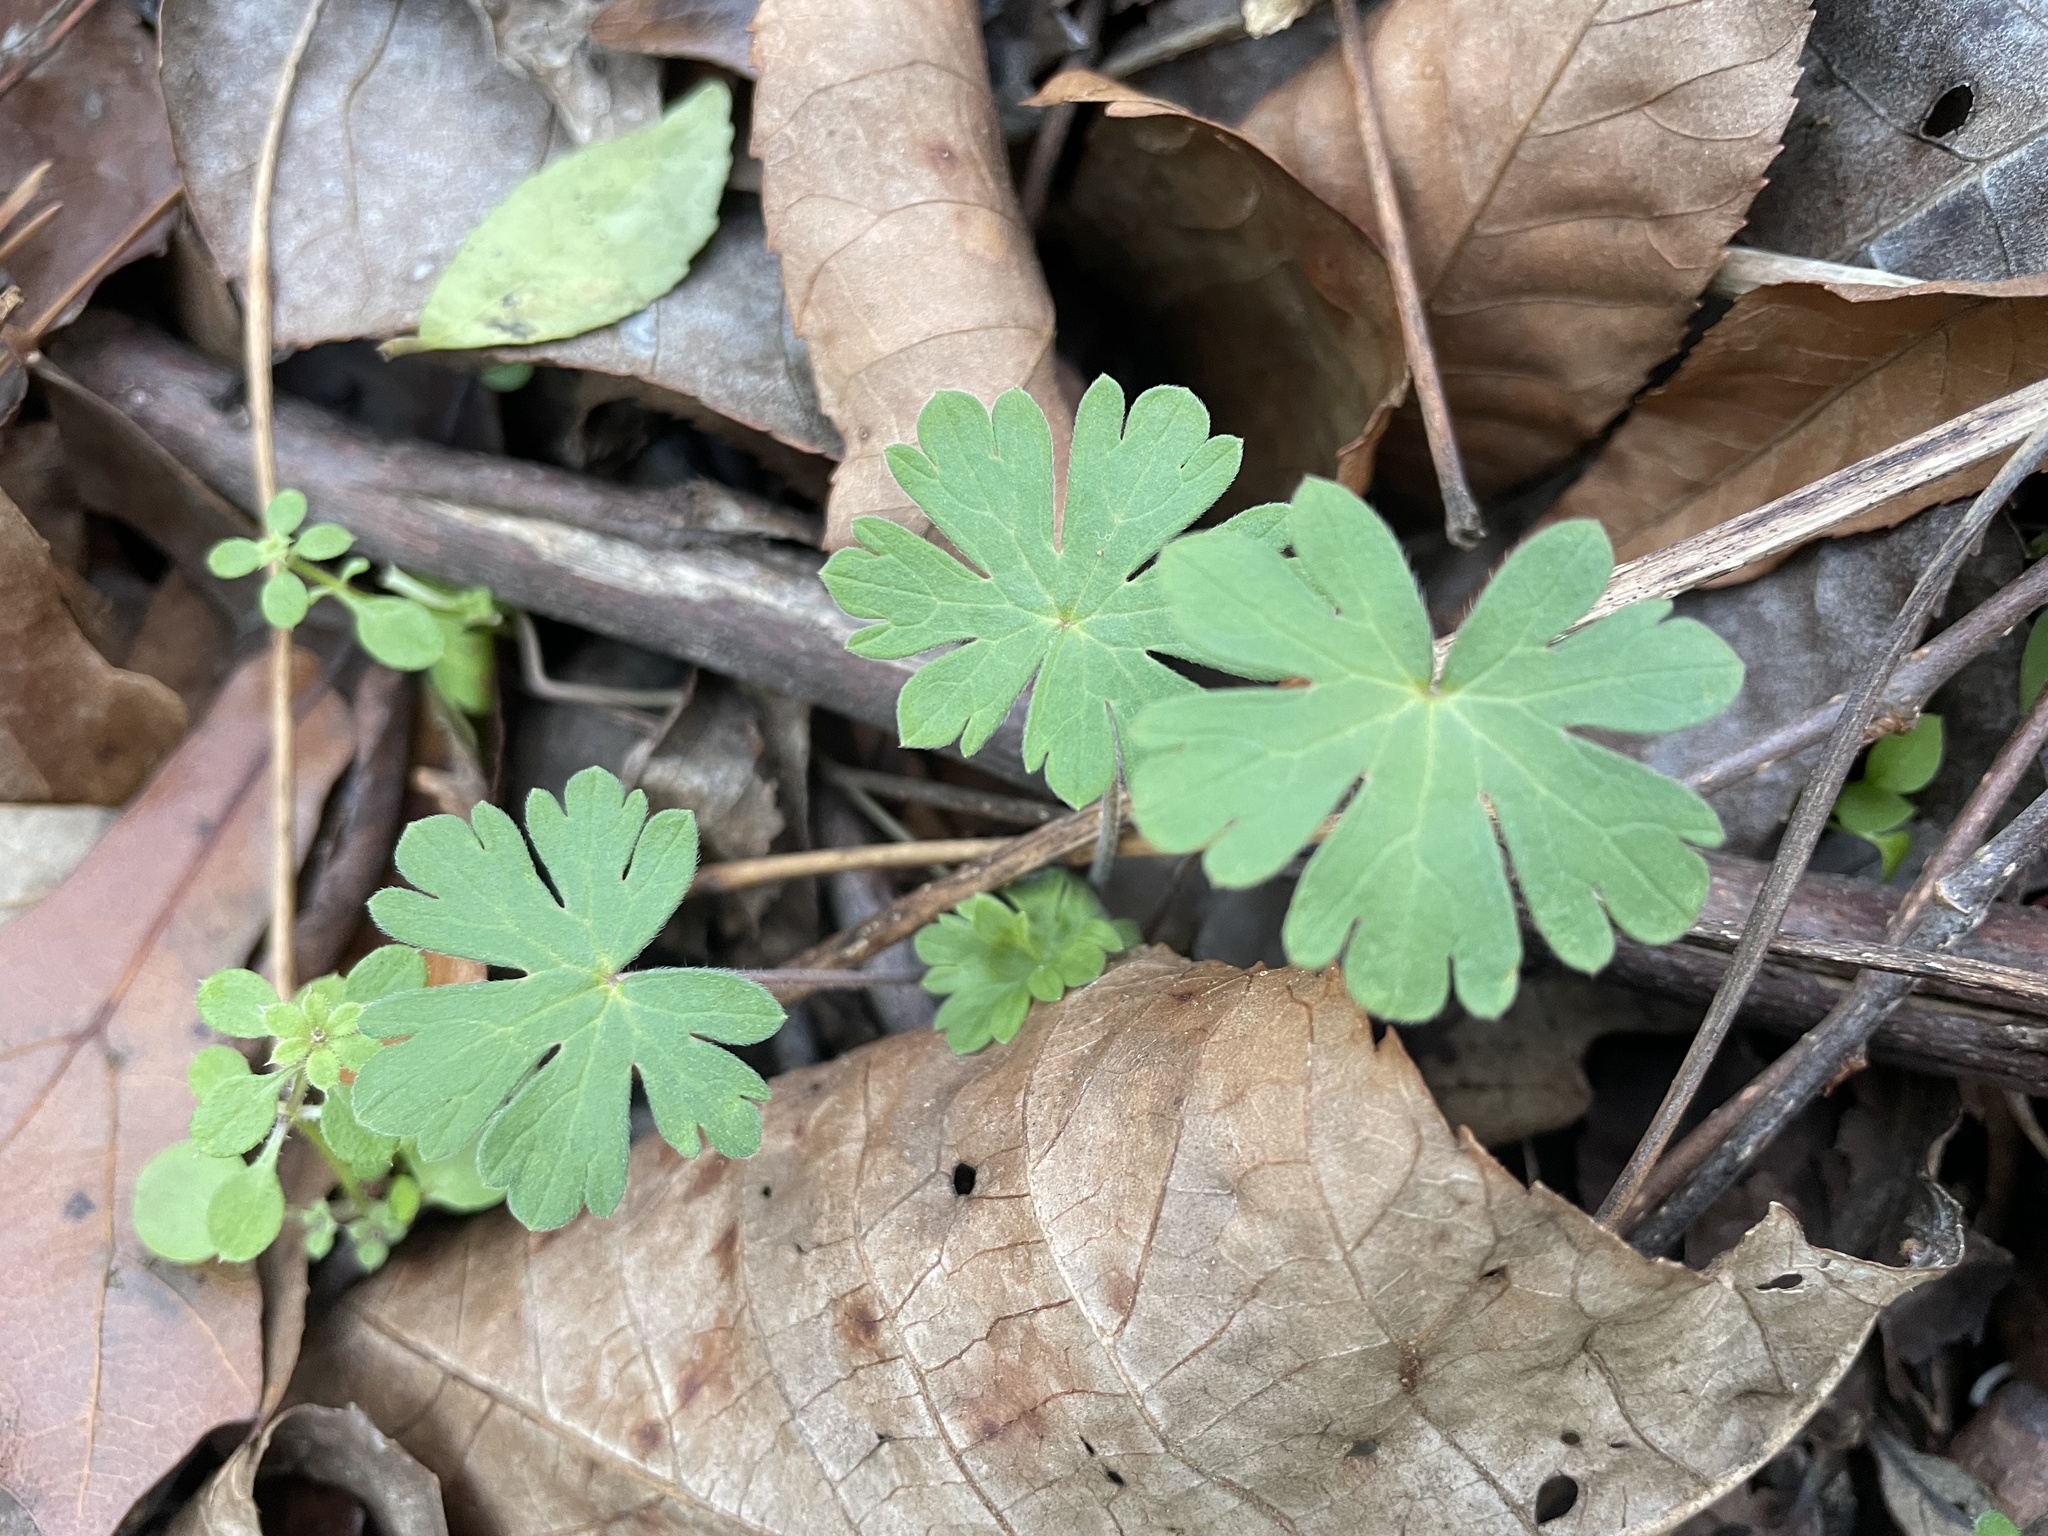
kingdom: Plantae
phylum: Tracheophyta
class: Magnoliopsida
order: Geraniales
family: Geraniaceae
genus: Geranium
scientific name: Geranium carolinianum
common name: Carolina crane's-bill
